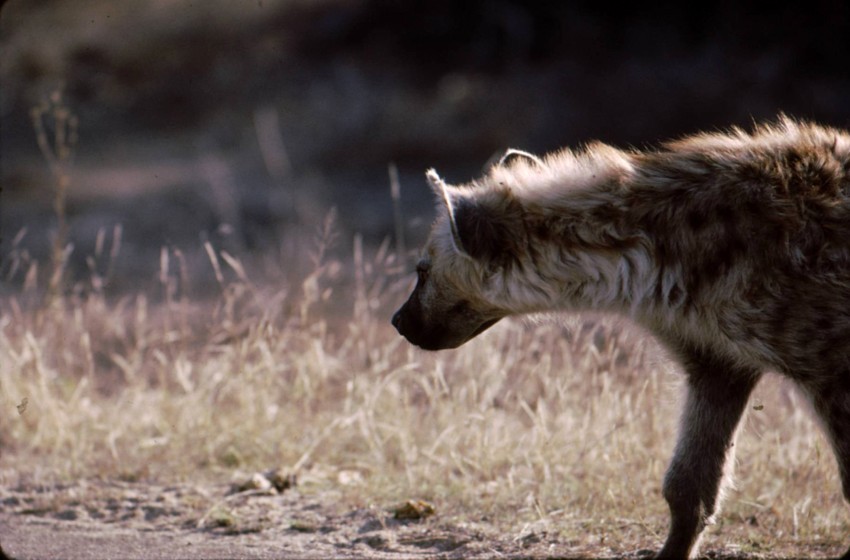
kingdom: Animalia
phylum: Chordata
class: Mammalia
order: Carnivora
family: Hyaenidae
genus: Crocuta
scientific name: Crocuta crocuta
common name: Spotted hyaena
